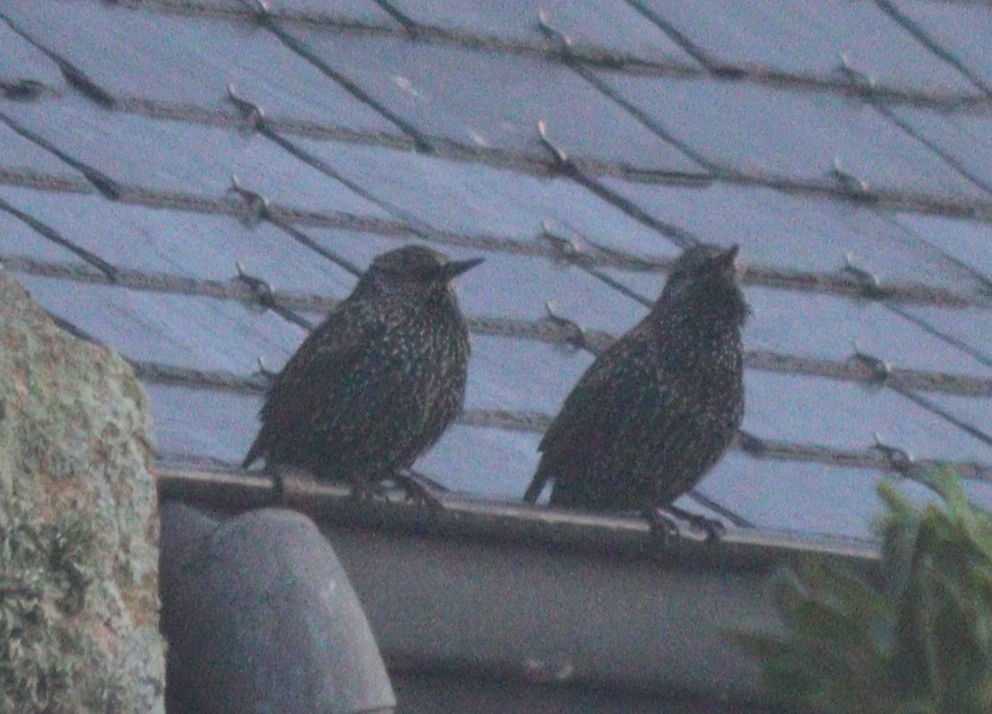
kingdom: Animalia
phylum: Chordata
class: Aves
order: Passeriformes
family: Sturnidae
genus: Sturnus
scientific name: Sturnus vulgaris
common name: Common starling
